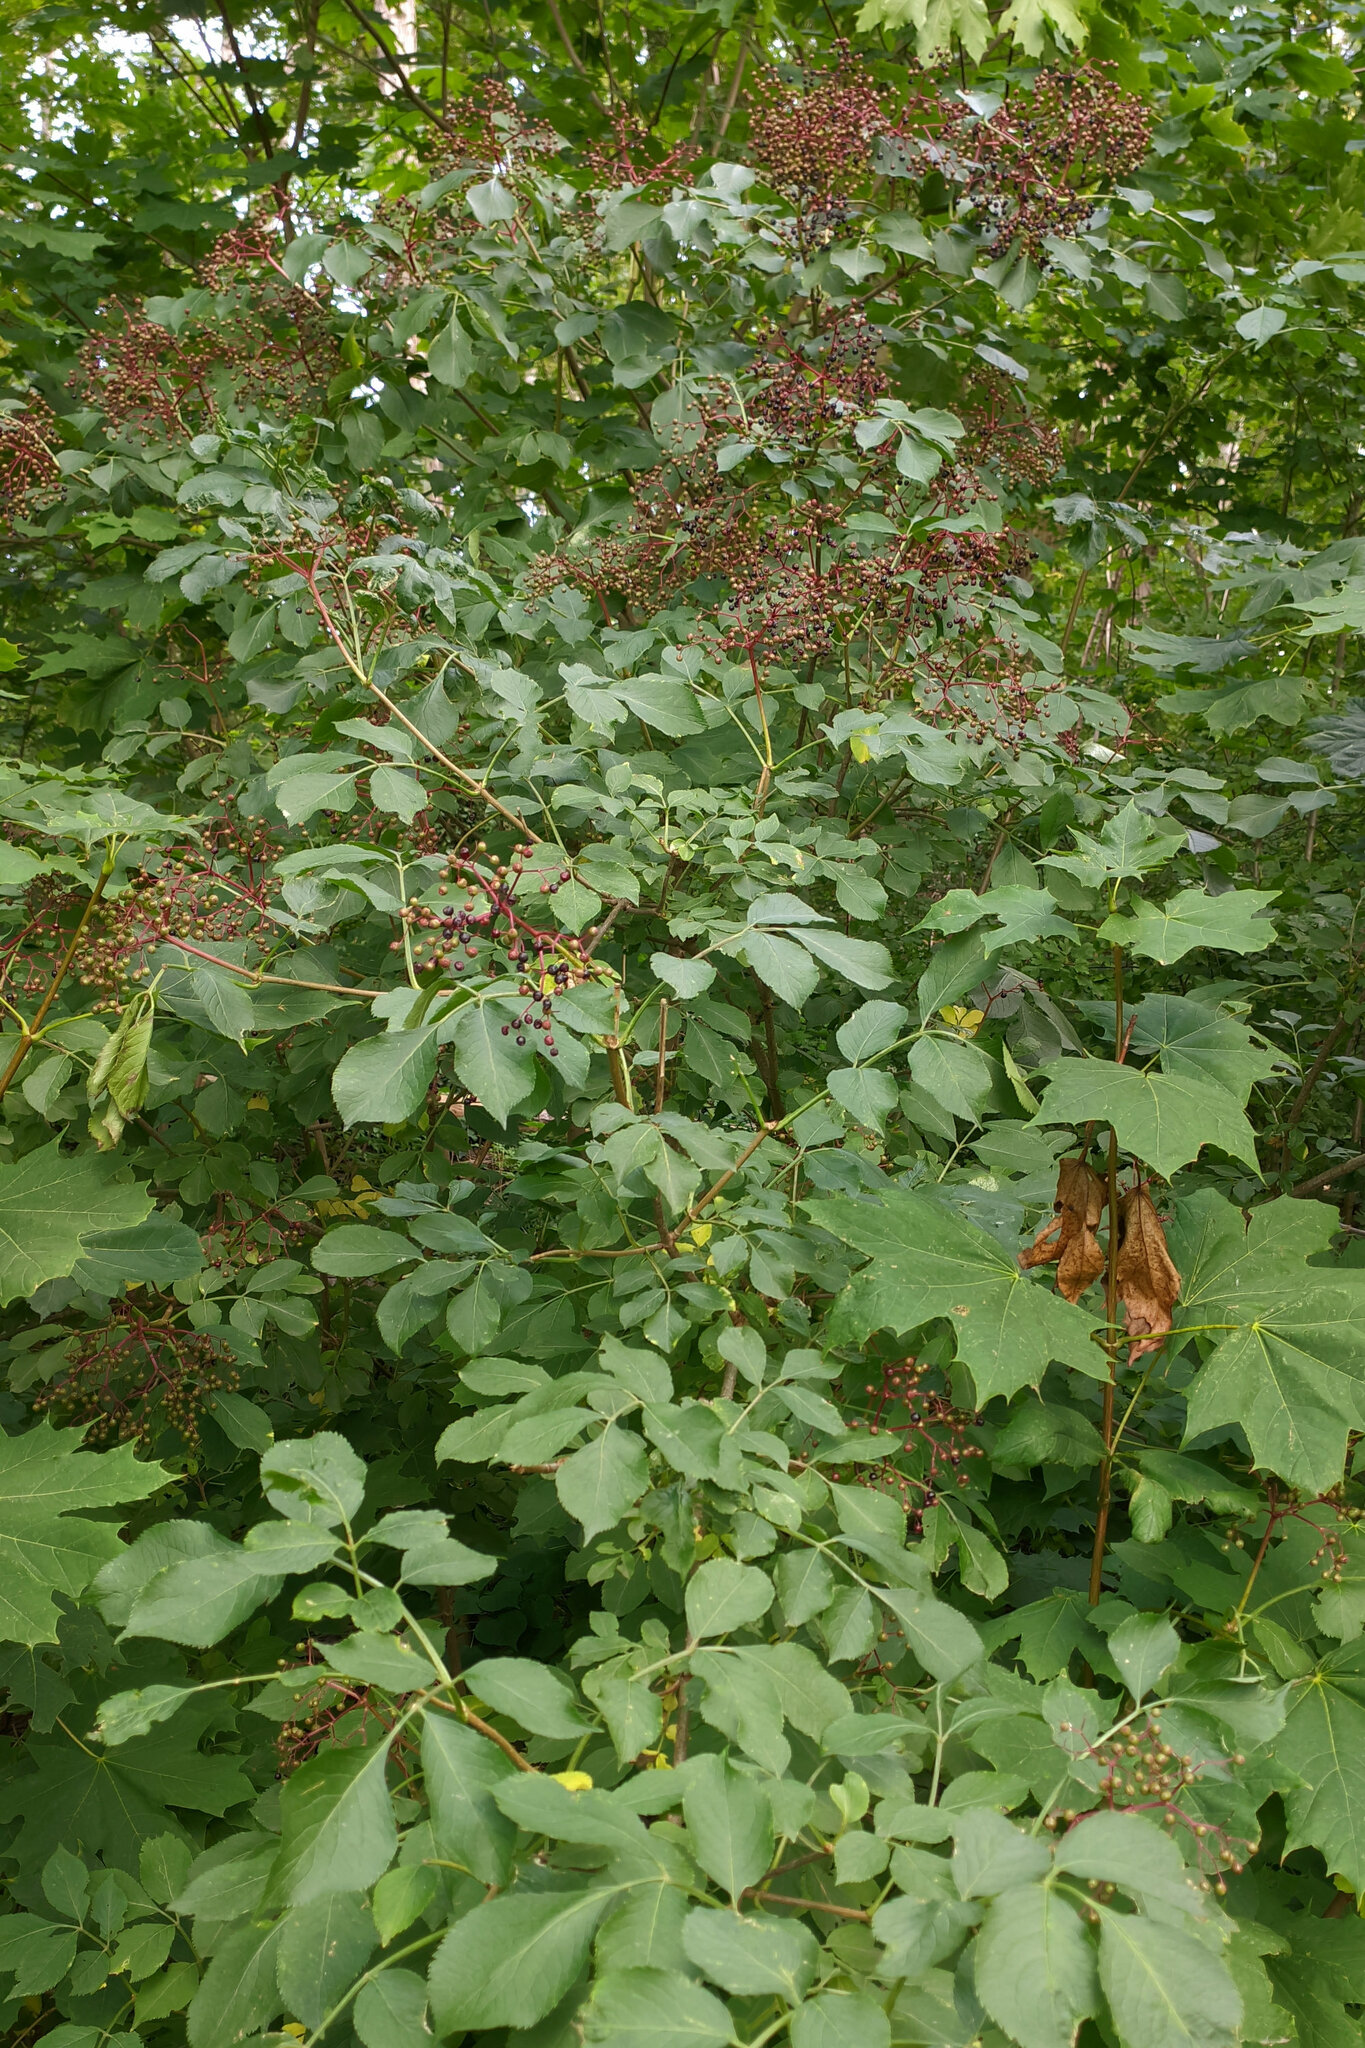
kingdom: Plantae
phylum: Tracheophyta
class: Magnoliopsida
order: Dipsacales
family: Viburnaceae
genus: Sambucus
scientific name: Sambucus nigra
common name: Elder
